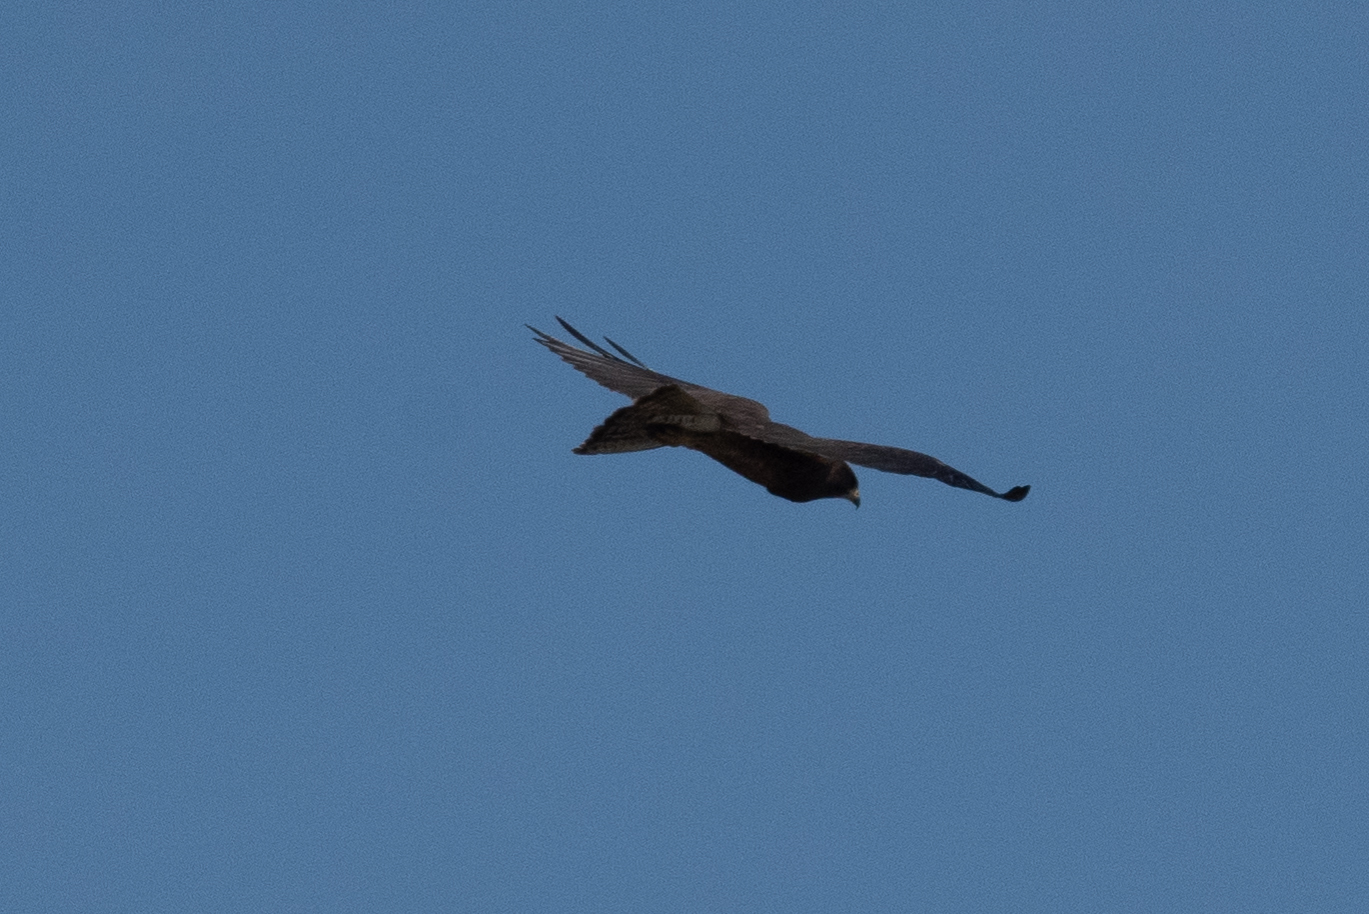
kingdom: Animalia
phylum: Chordata
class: Aves
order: Accipitriformes
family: Accipitridae
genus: Buteo
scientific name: Buteo swainsoni
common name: Swainson's hawk
